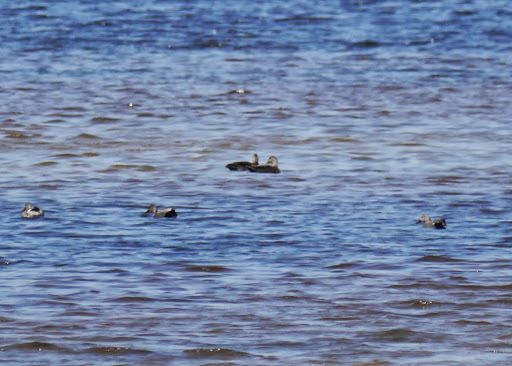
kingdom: Animalia
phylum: Chordata
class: Aves
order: Anseriformes
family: Anatidae
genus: Anas
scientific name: Anas rubripes
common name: American black duck
